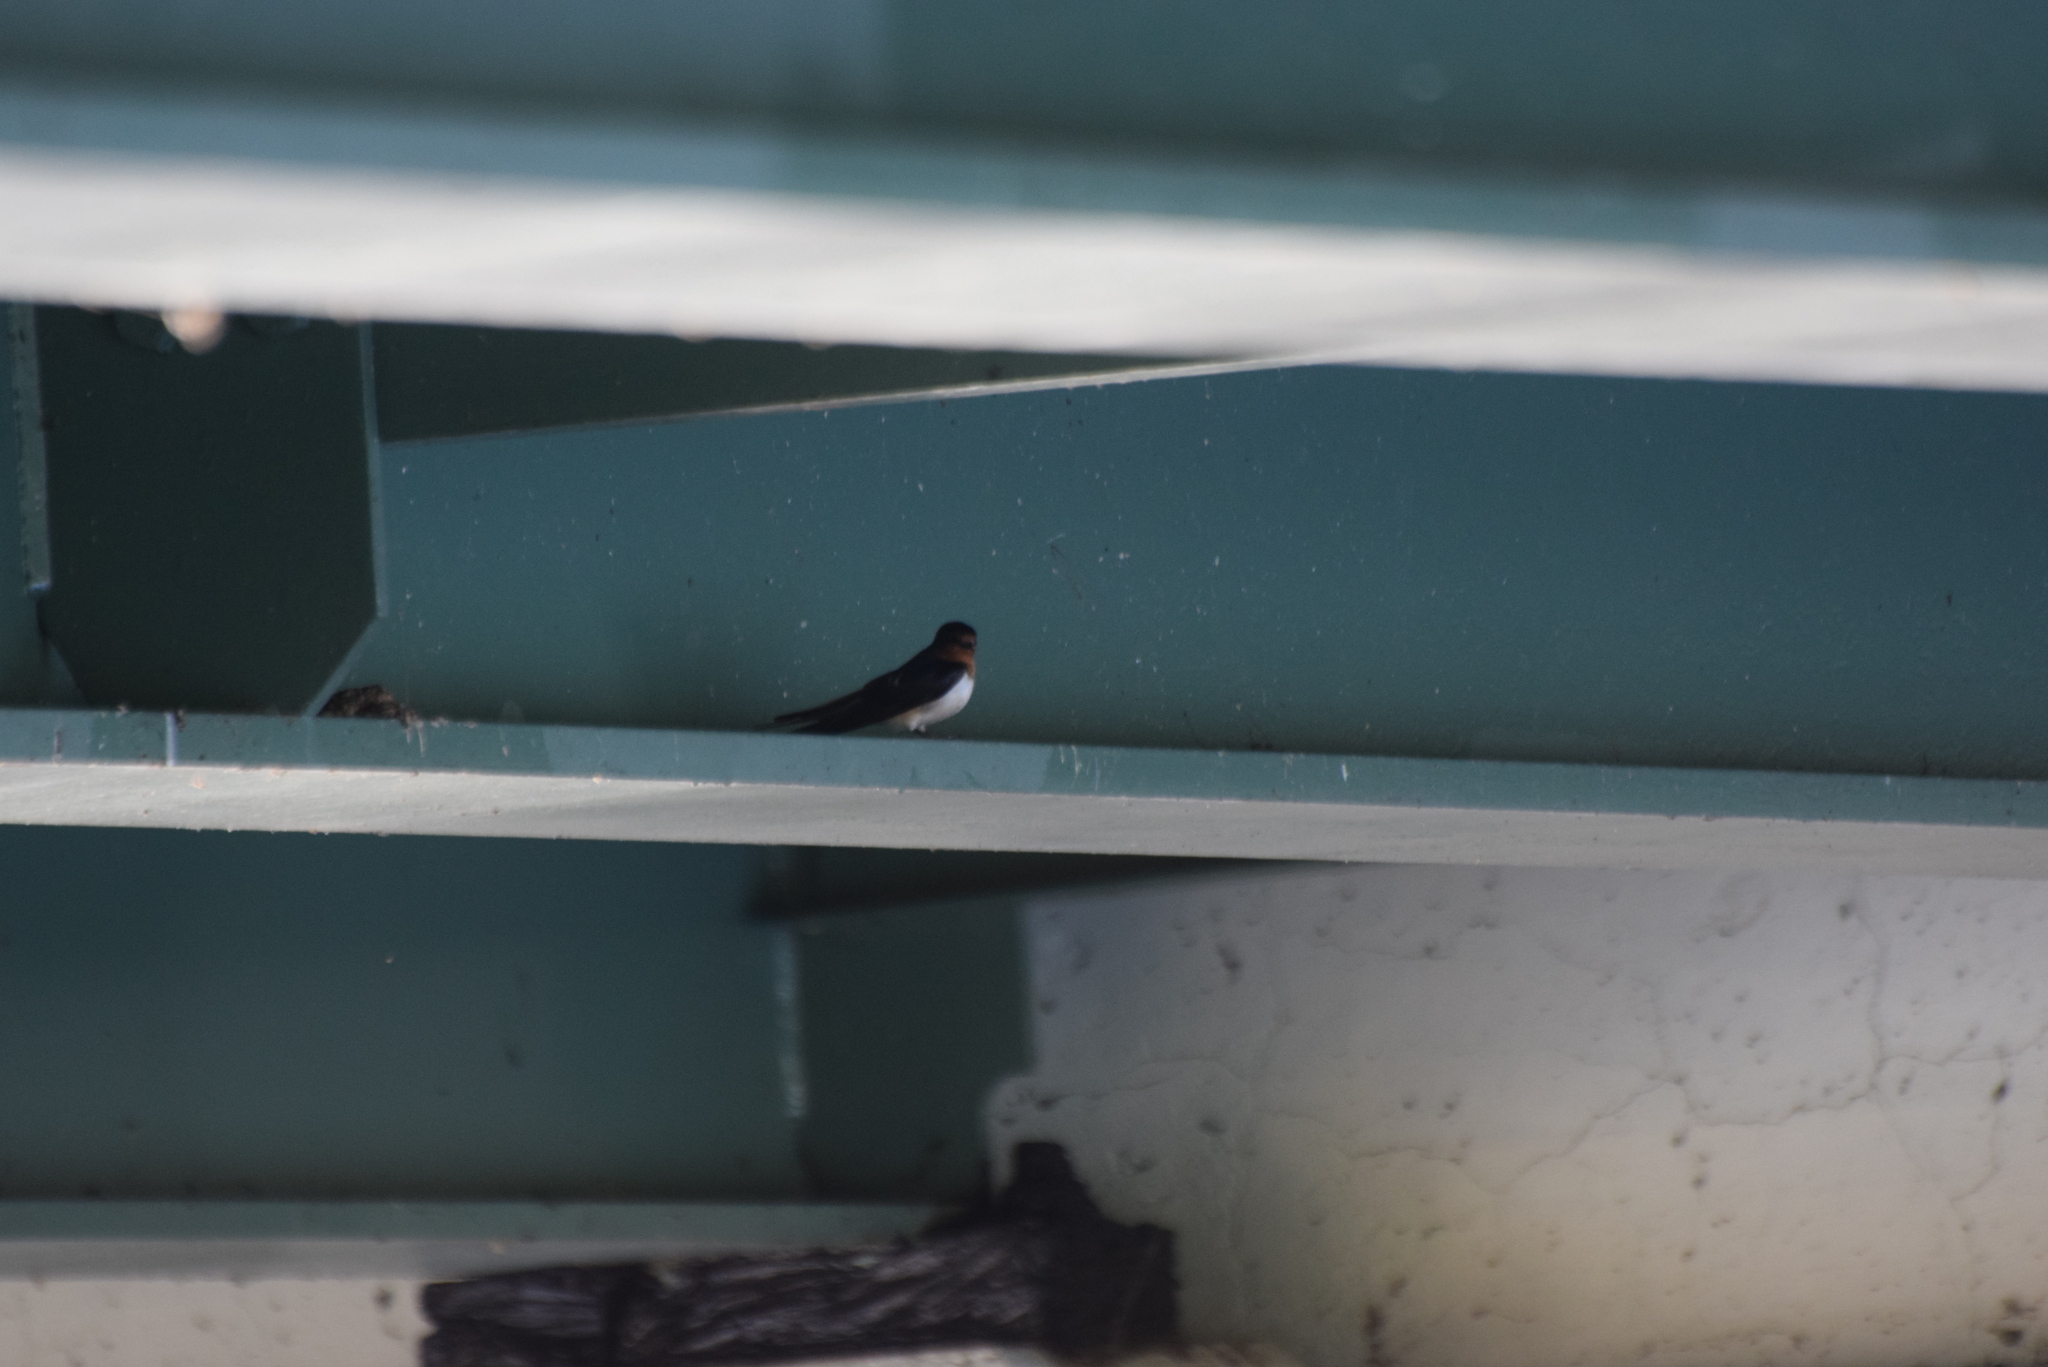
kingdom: Animalia
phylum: Chordata
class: Aves
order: Passeriformes
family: Hirundinidae
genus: Hirundo
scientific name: Hirundo rustica
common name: Barn swallow
